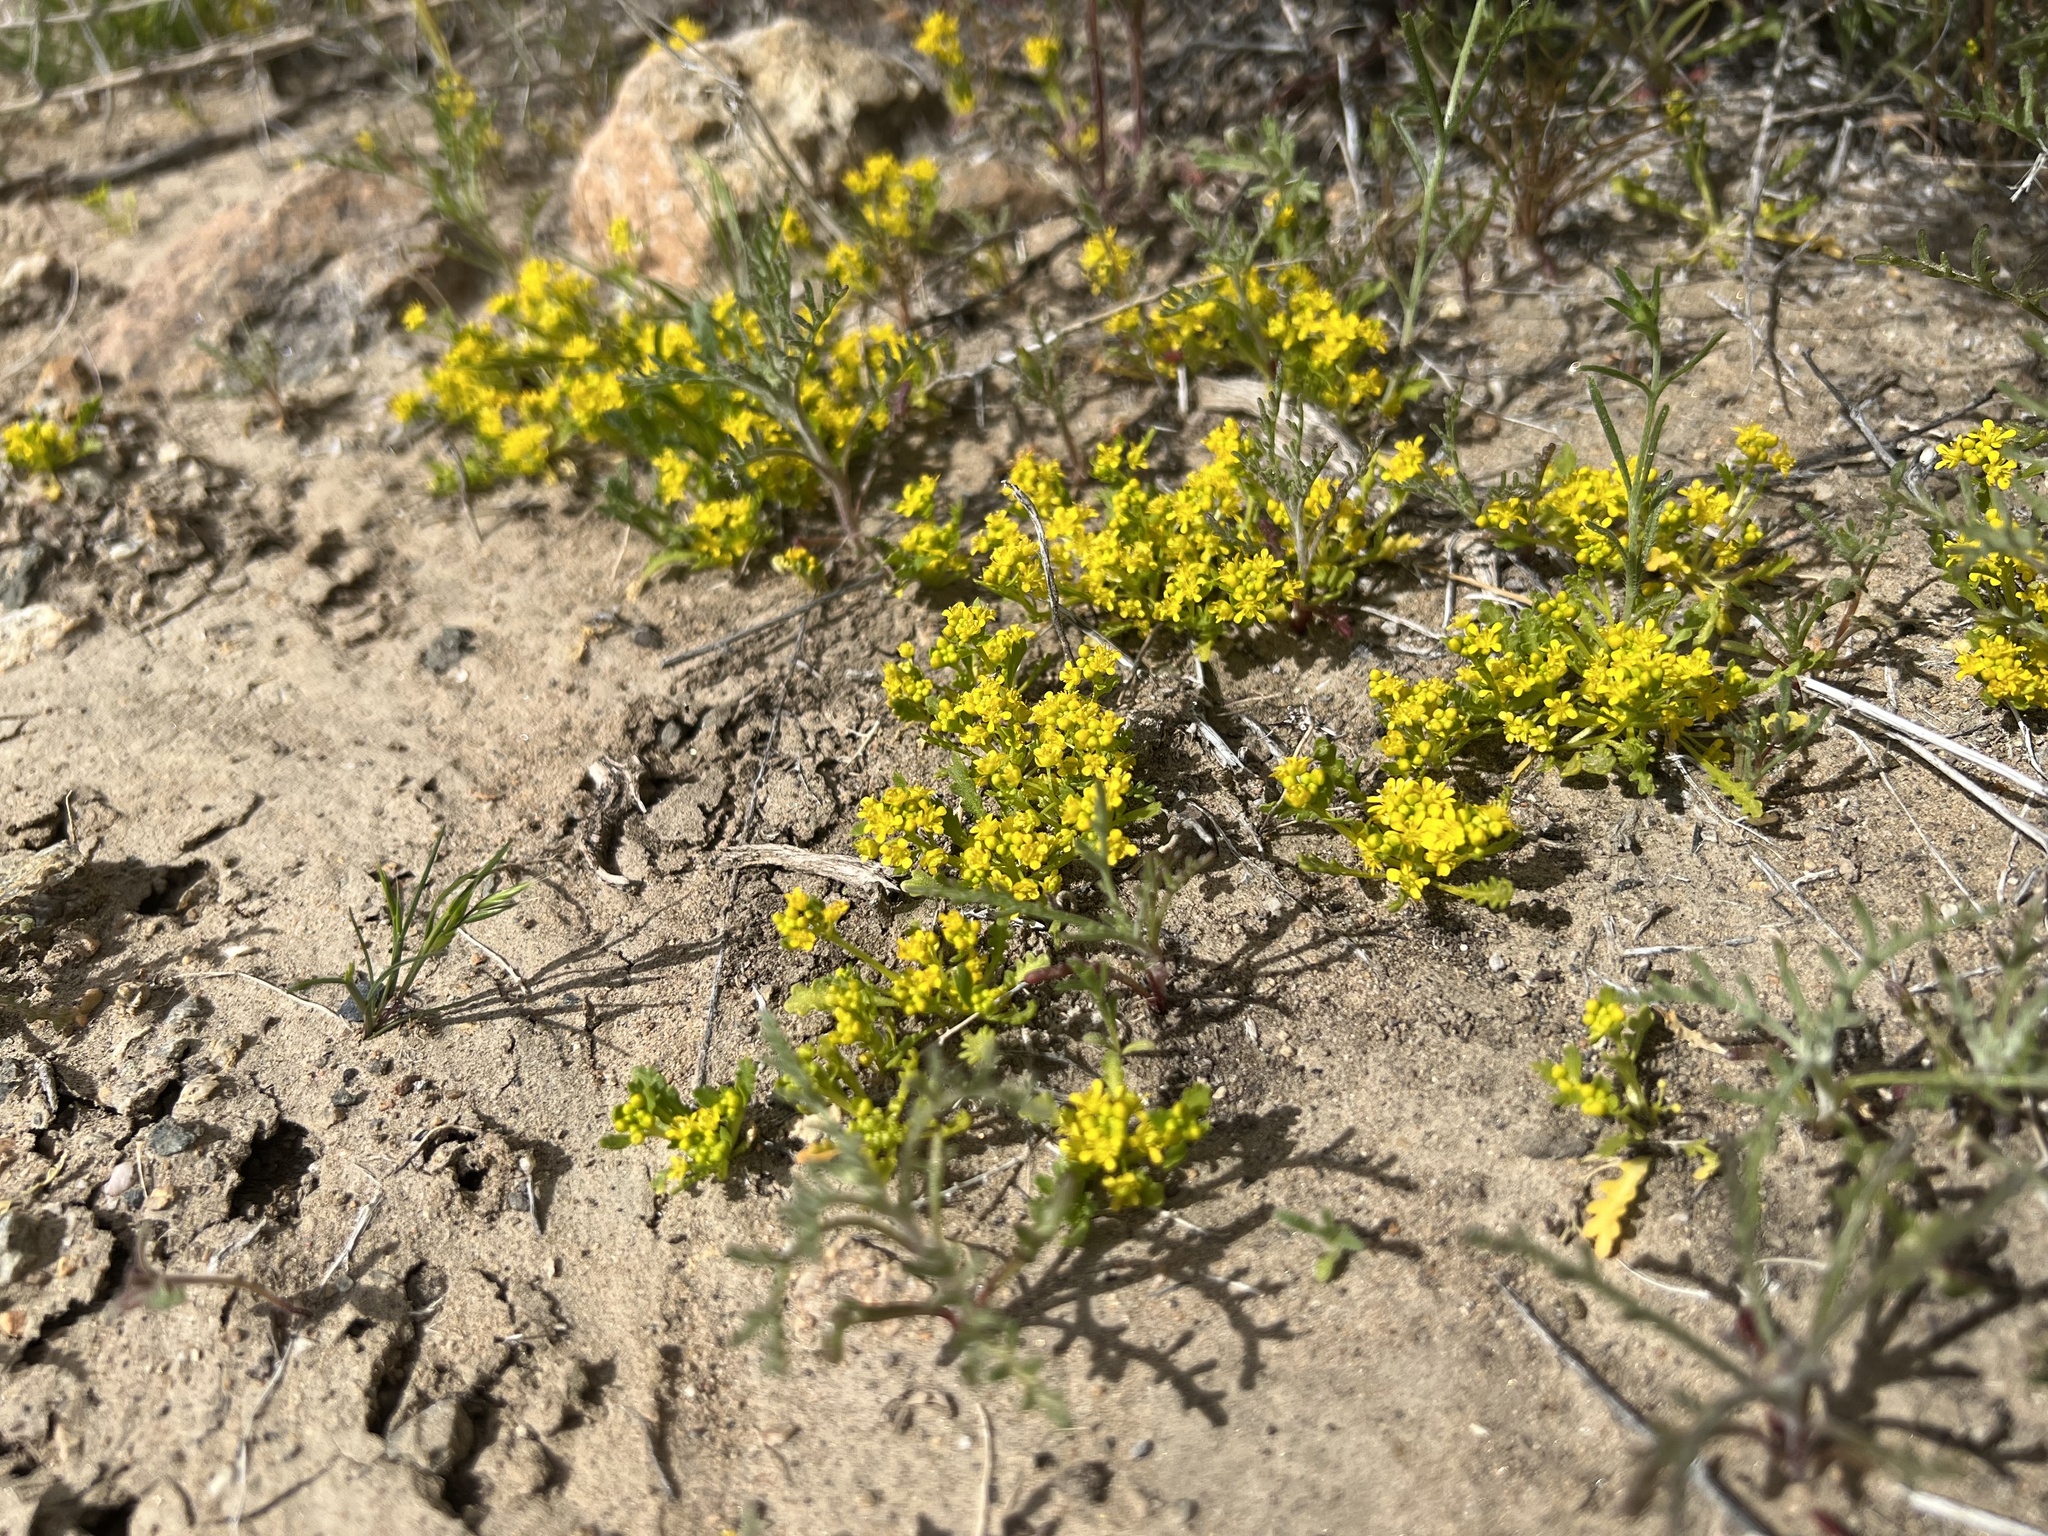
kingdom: Plantae
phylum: Tracheophyta
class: Magnoliopsida
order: Brassicales
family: Brassicaceae
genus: Lepidium
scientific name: Lepidium flavum
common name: Yellow pepperwort
